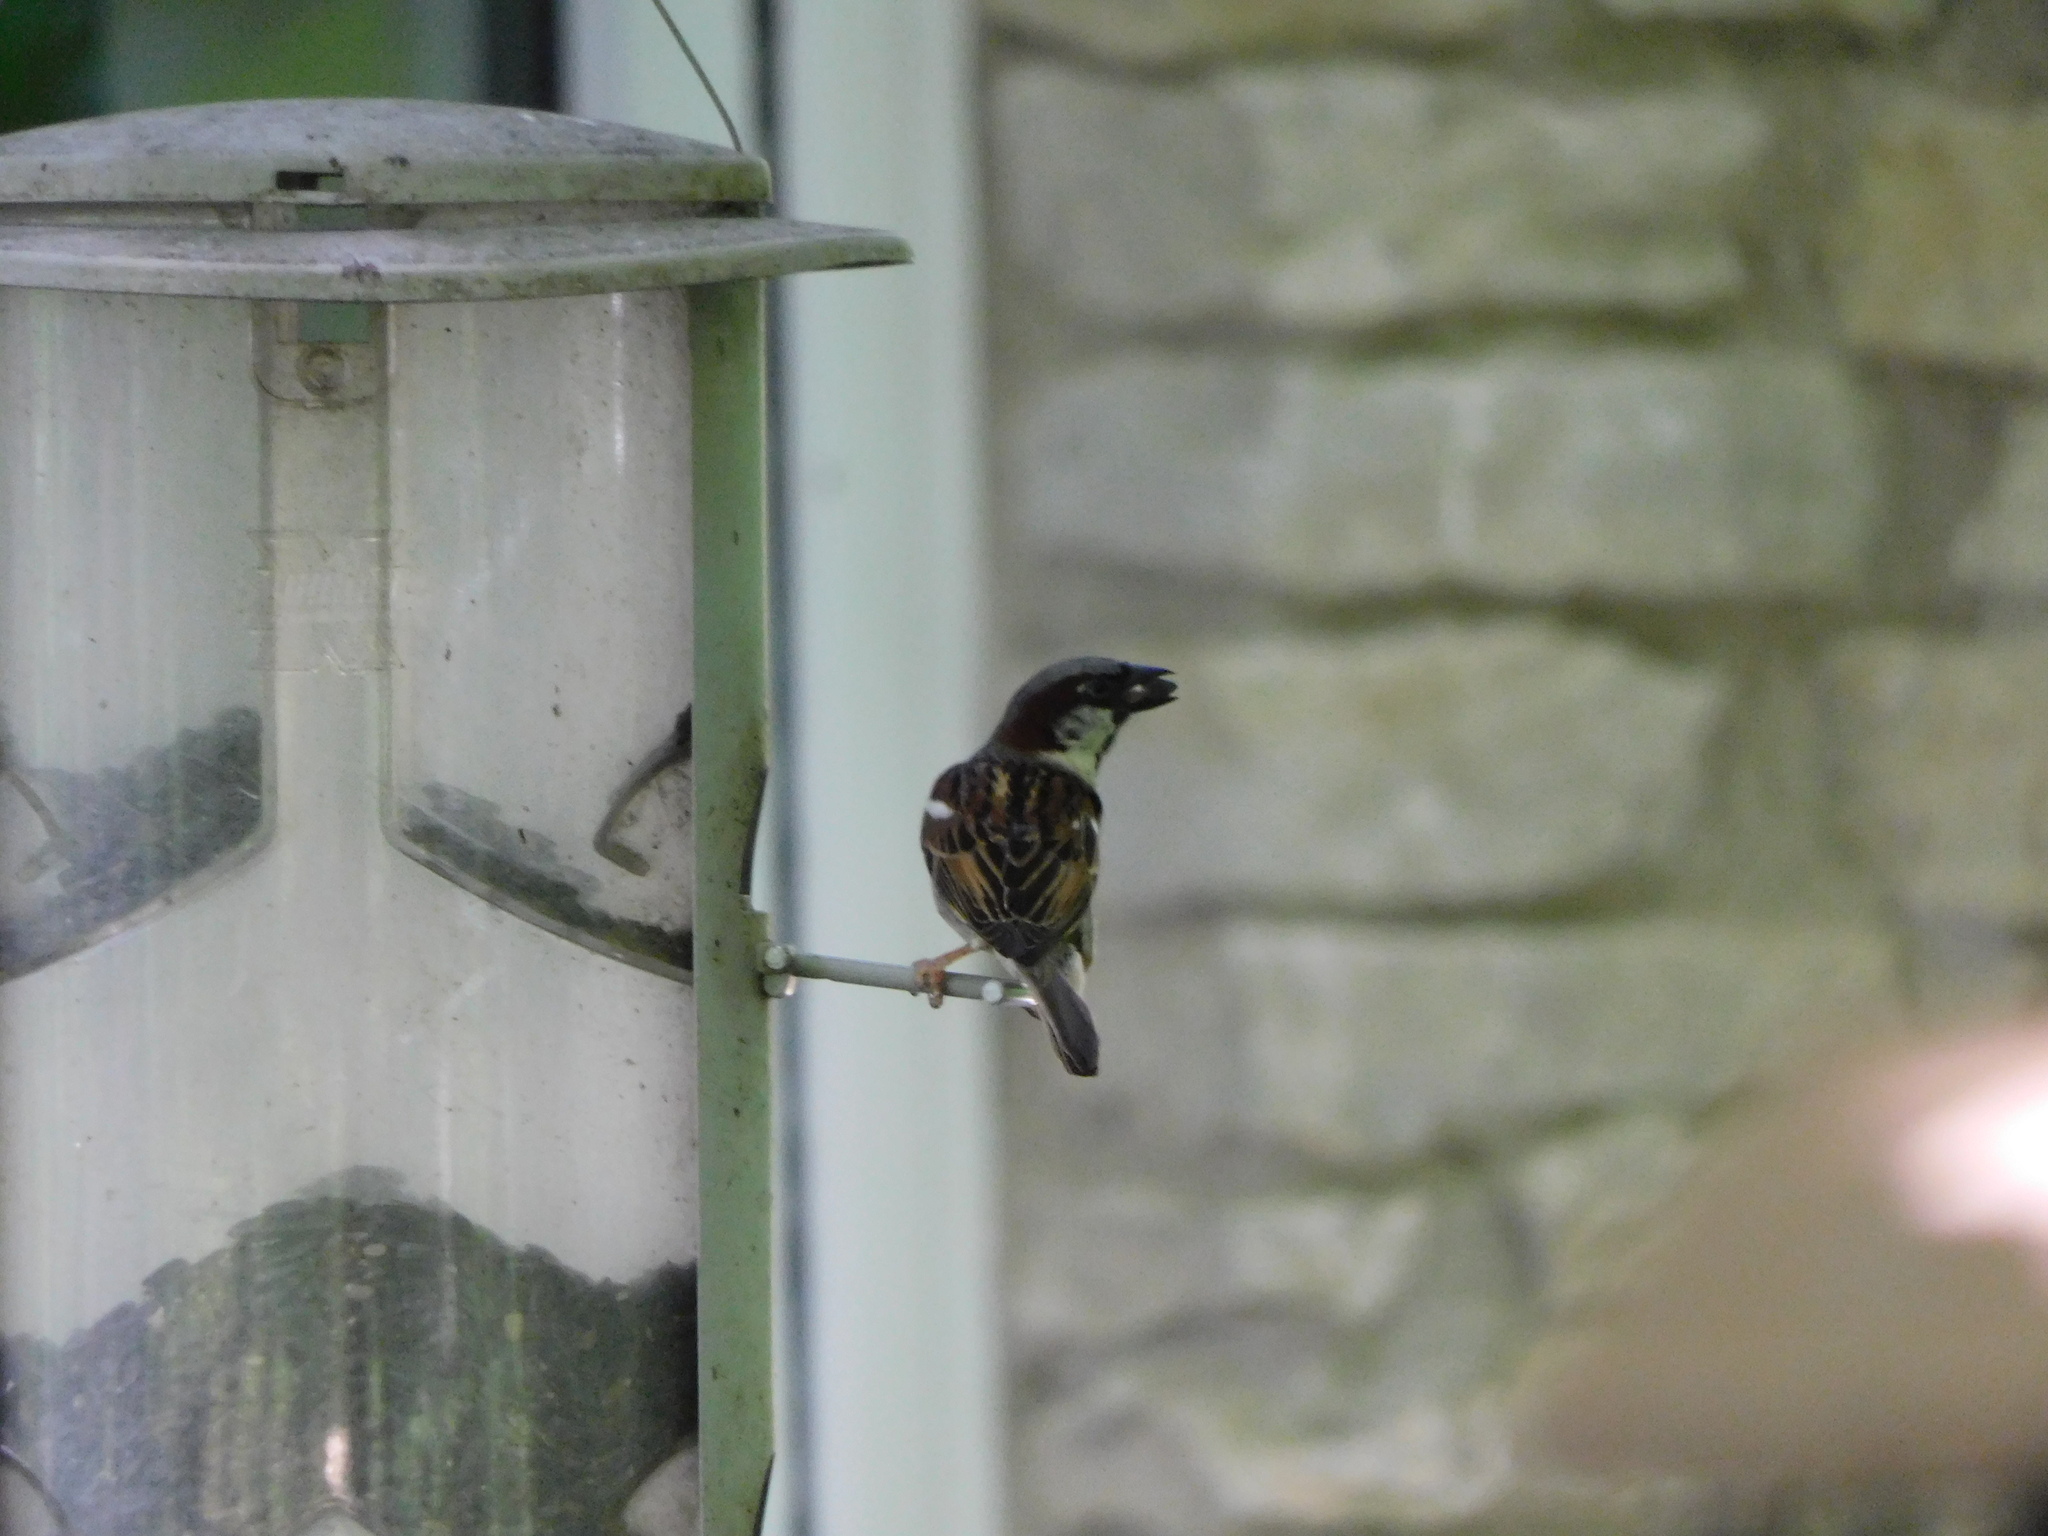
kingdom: Animalia
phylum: Chordata
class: Aves
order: Passeriformes
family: Passeridae
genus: Passer
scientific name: Passer domesticus
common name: House sparrow
